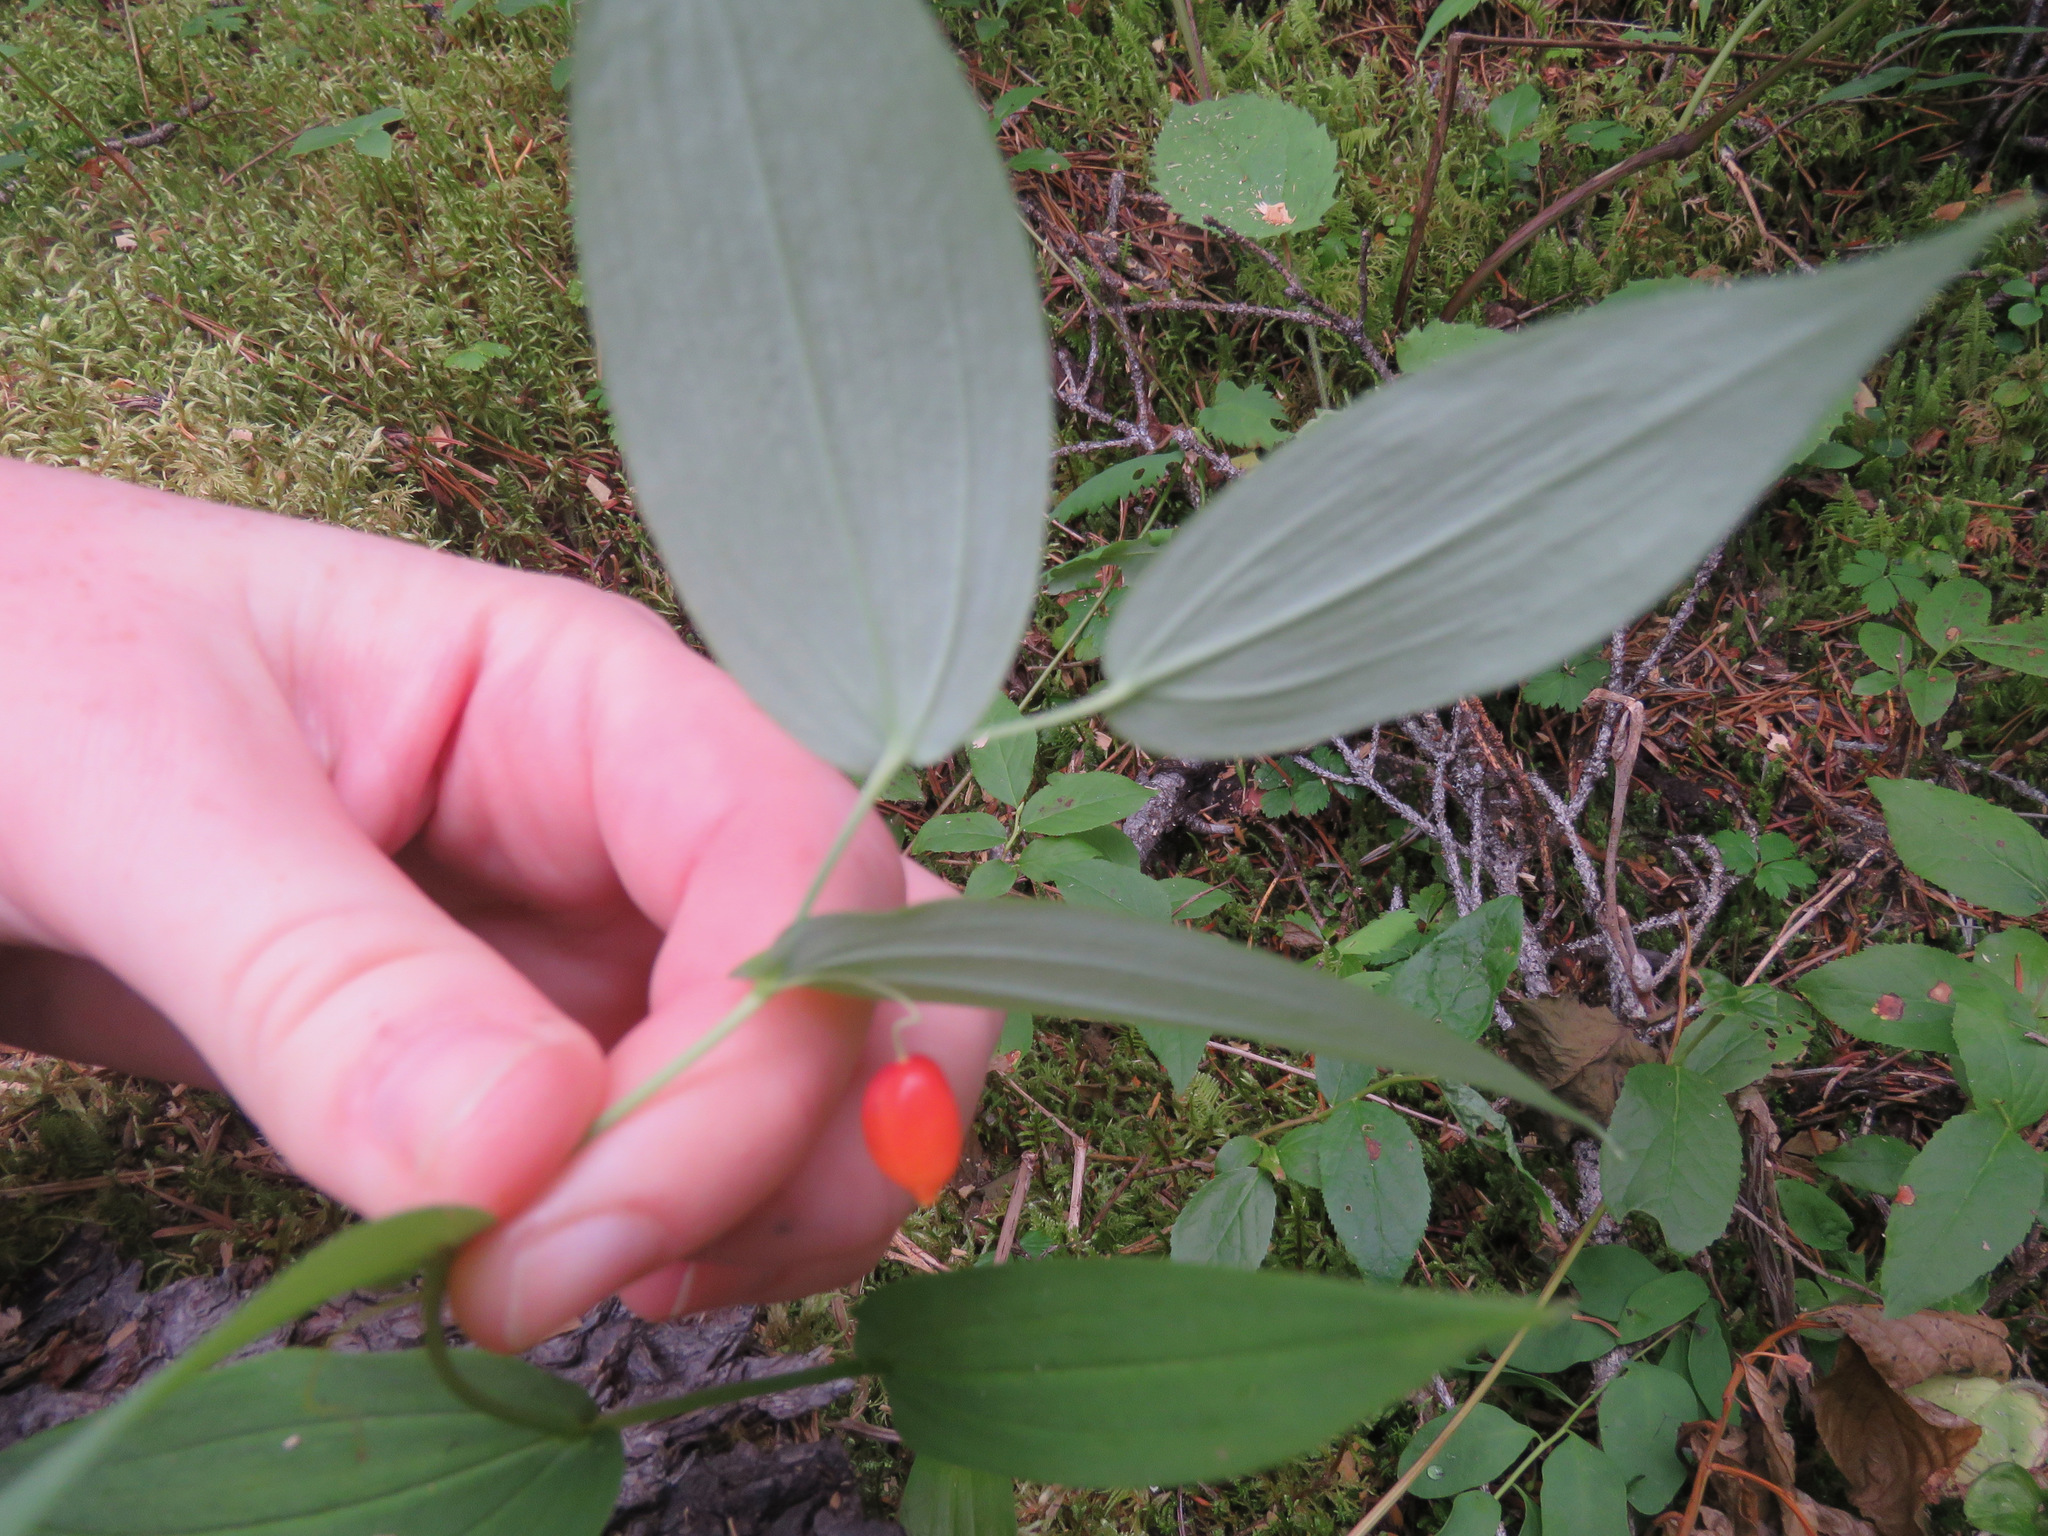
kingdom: Plantae
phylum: Tracheophyta
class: Liliopsida
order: Liliales
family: Liliaceae
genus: Streptopus
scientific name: Streptopus amplexifolius
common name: Clasp twisted stalk
